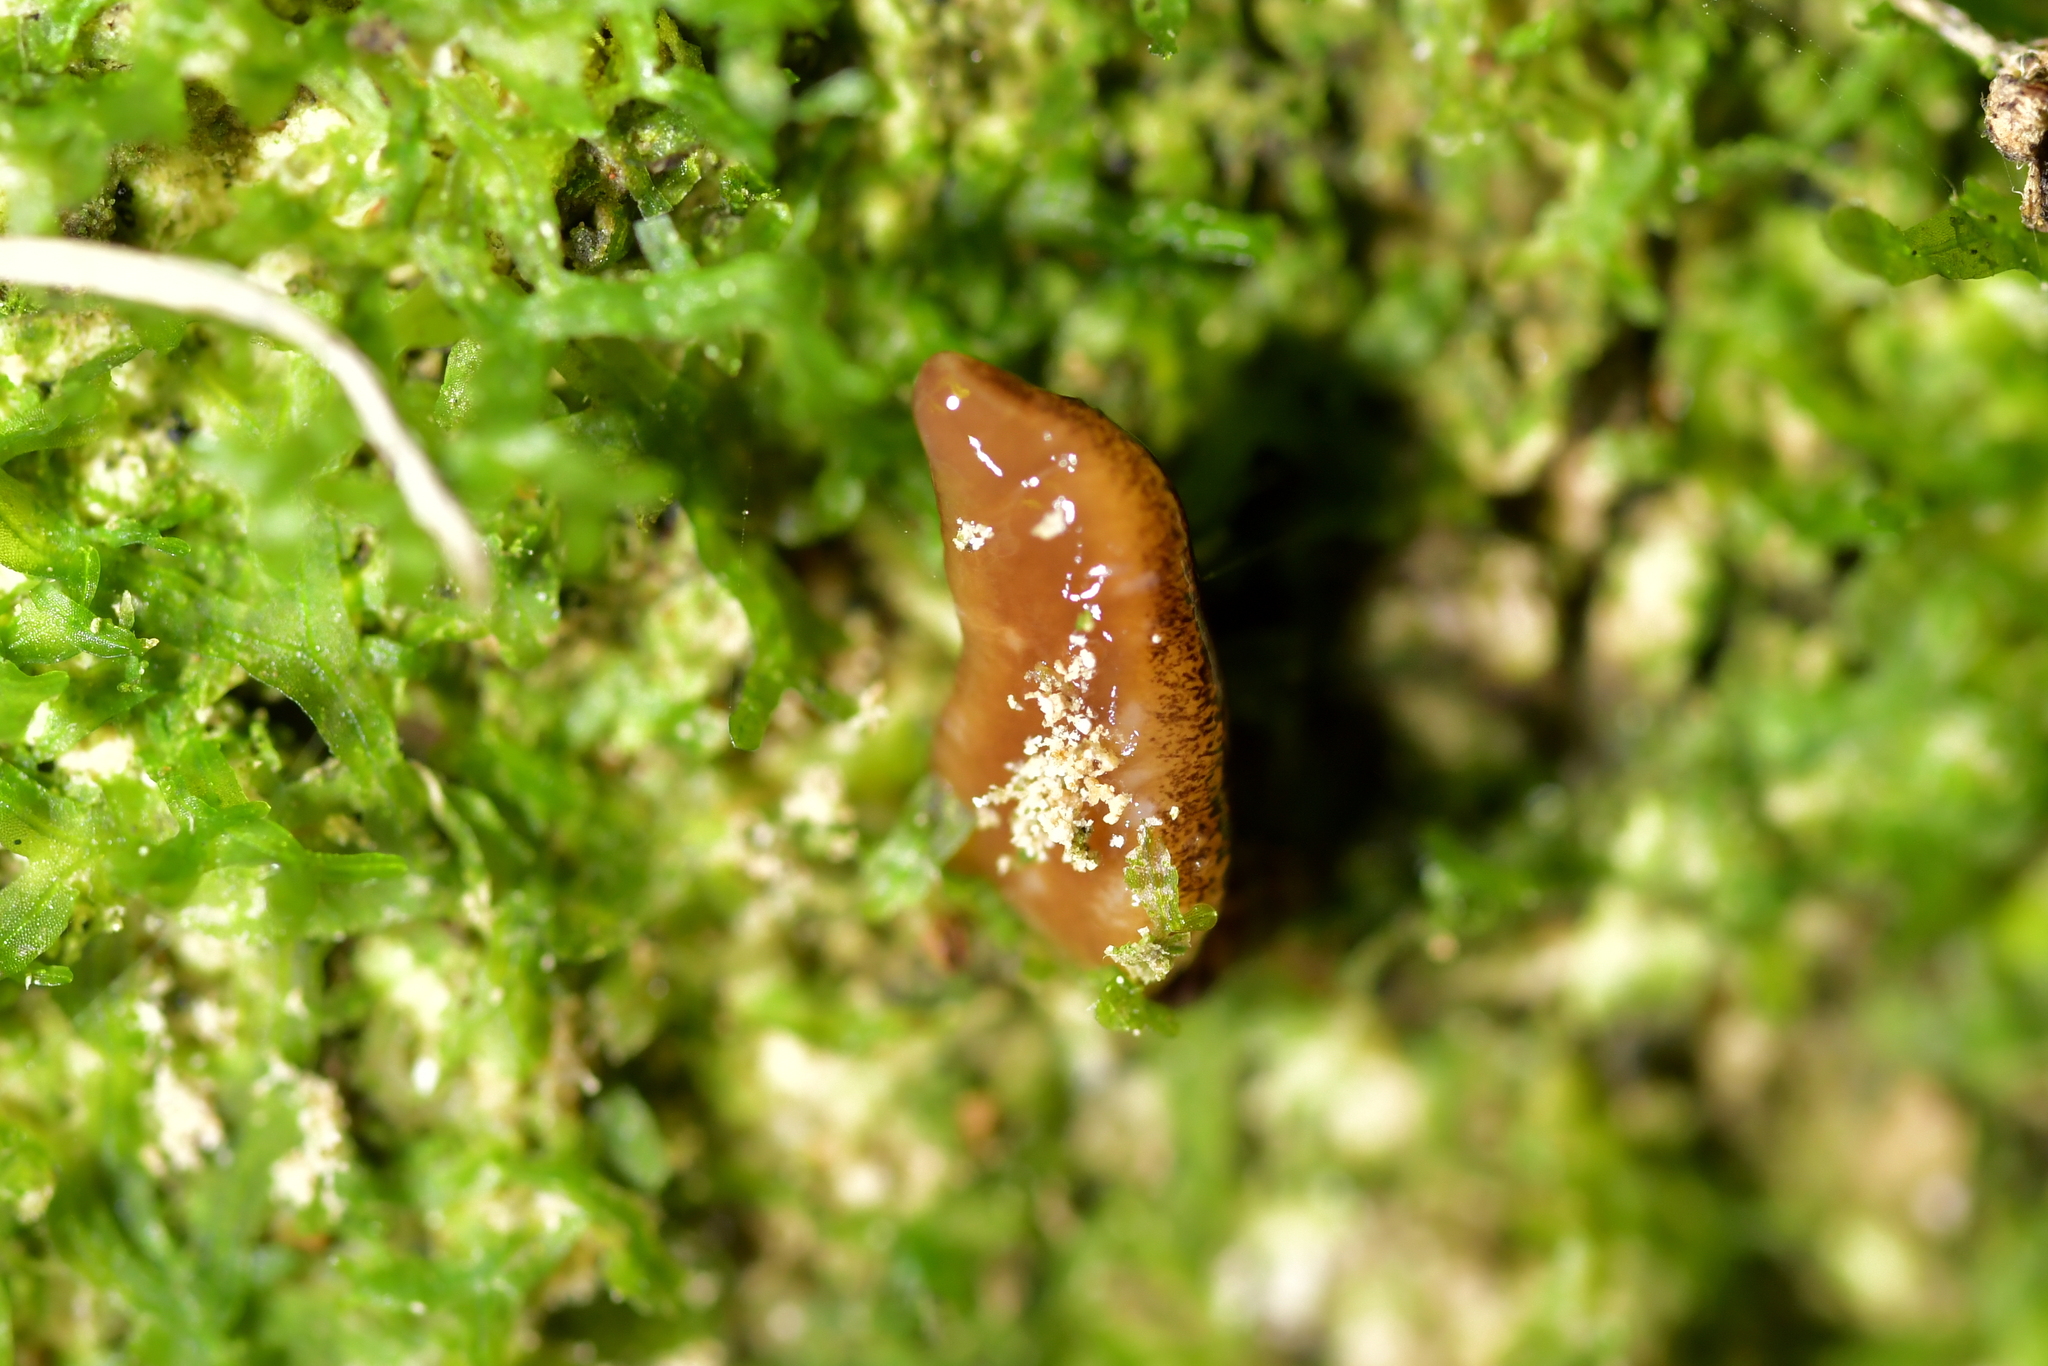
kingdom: Animalia
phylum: Platyhelminthes
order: Tricladida
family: Geoplanidae
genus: Artioposthia
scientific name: Artioposthia polyadoides
